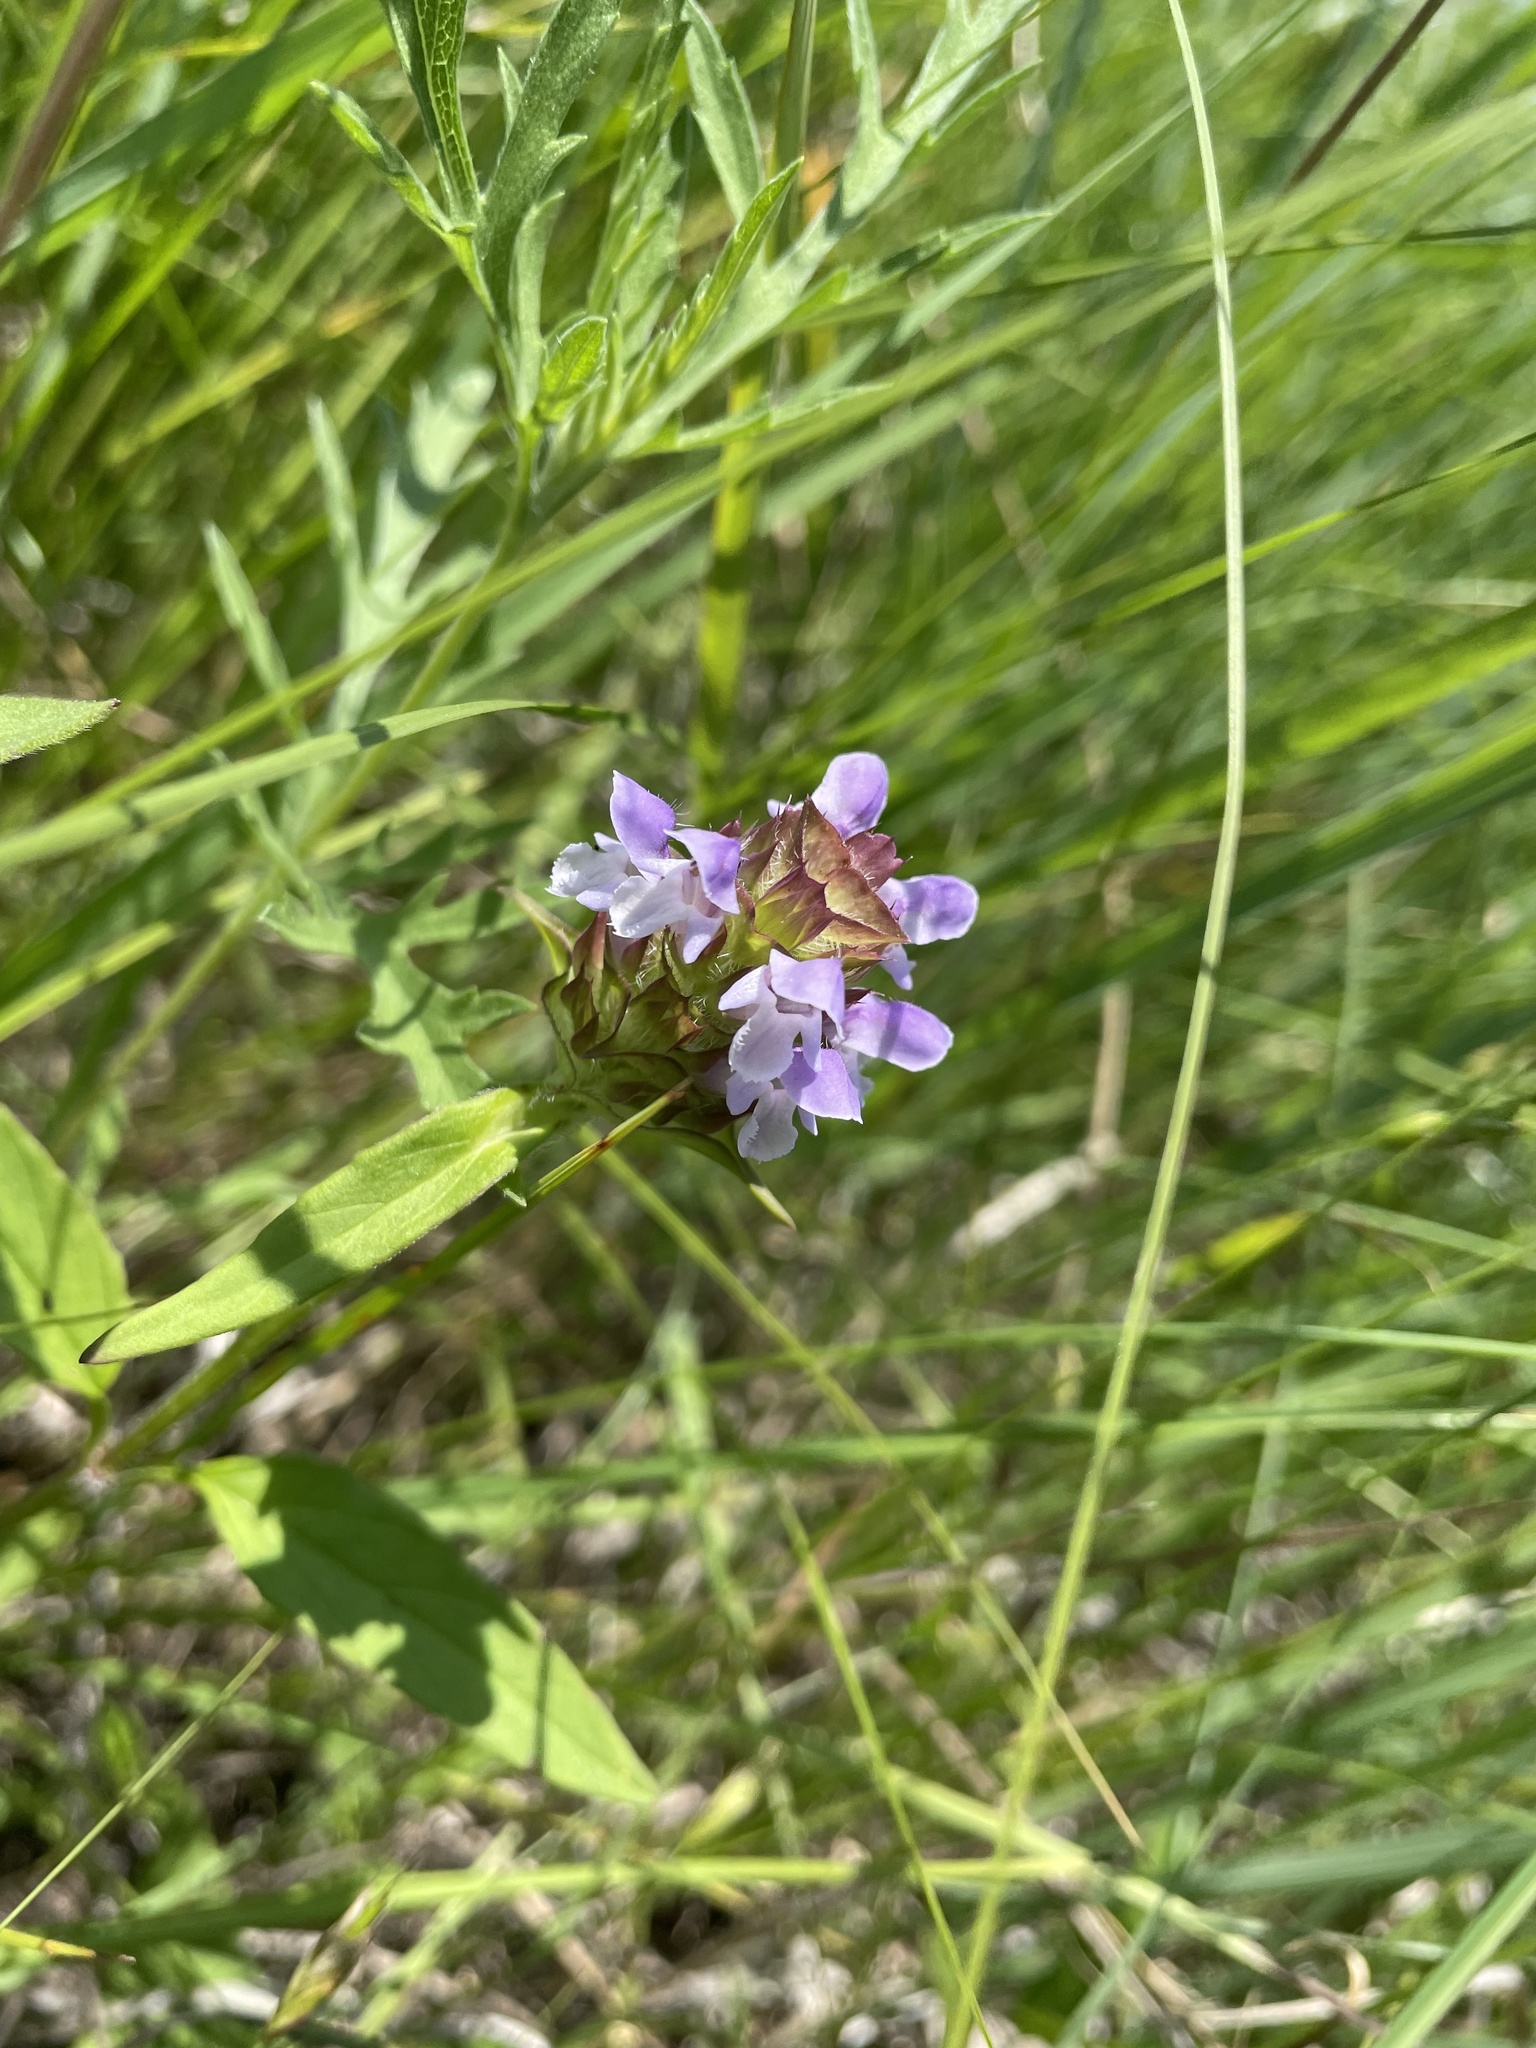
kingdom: Plantae
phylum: Tracheophyta
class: Magnoliopsida
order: Lamiales
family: Lamiaceae
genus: Prunella
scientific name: Prunella vulgaris
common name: Heal-all
